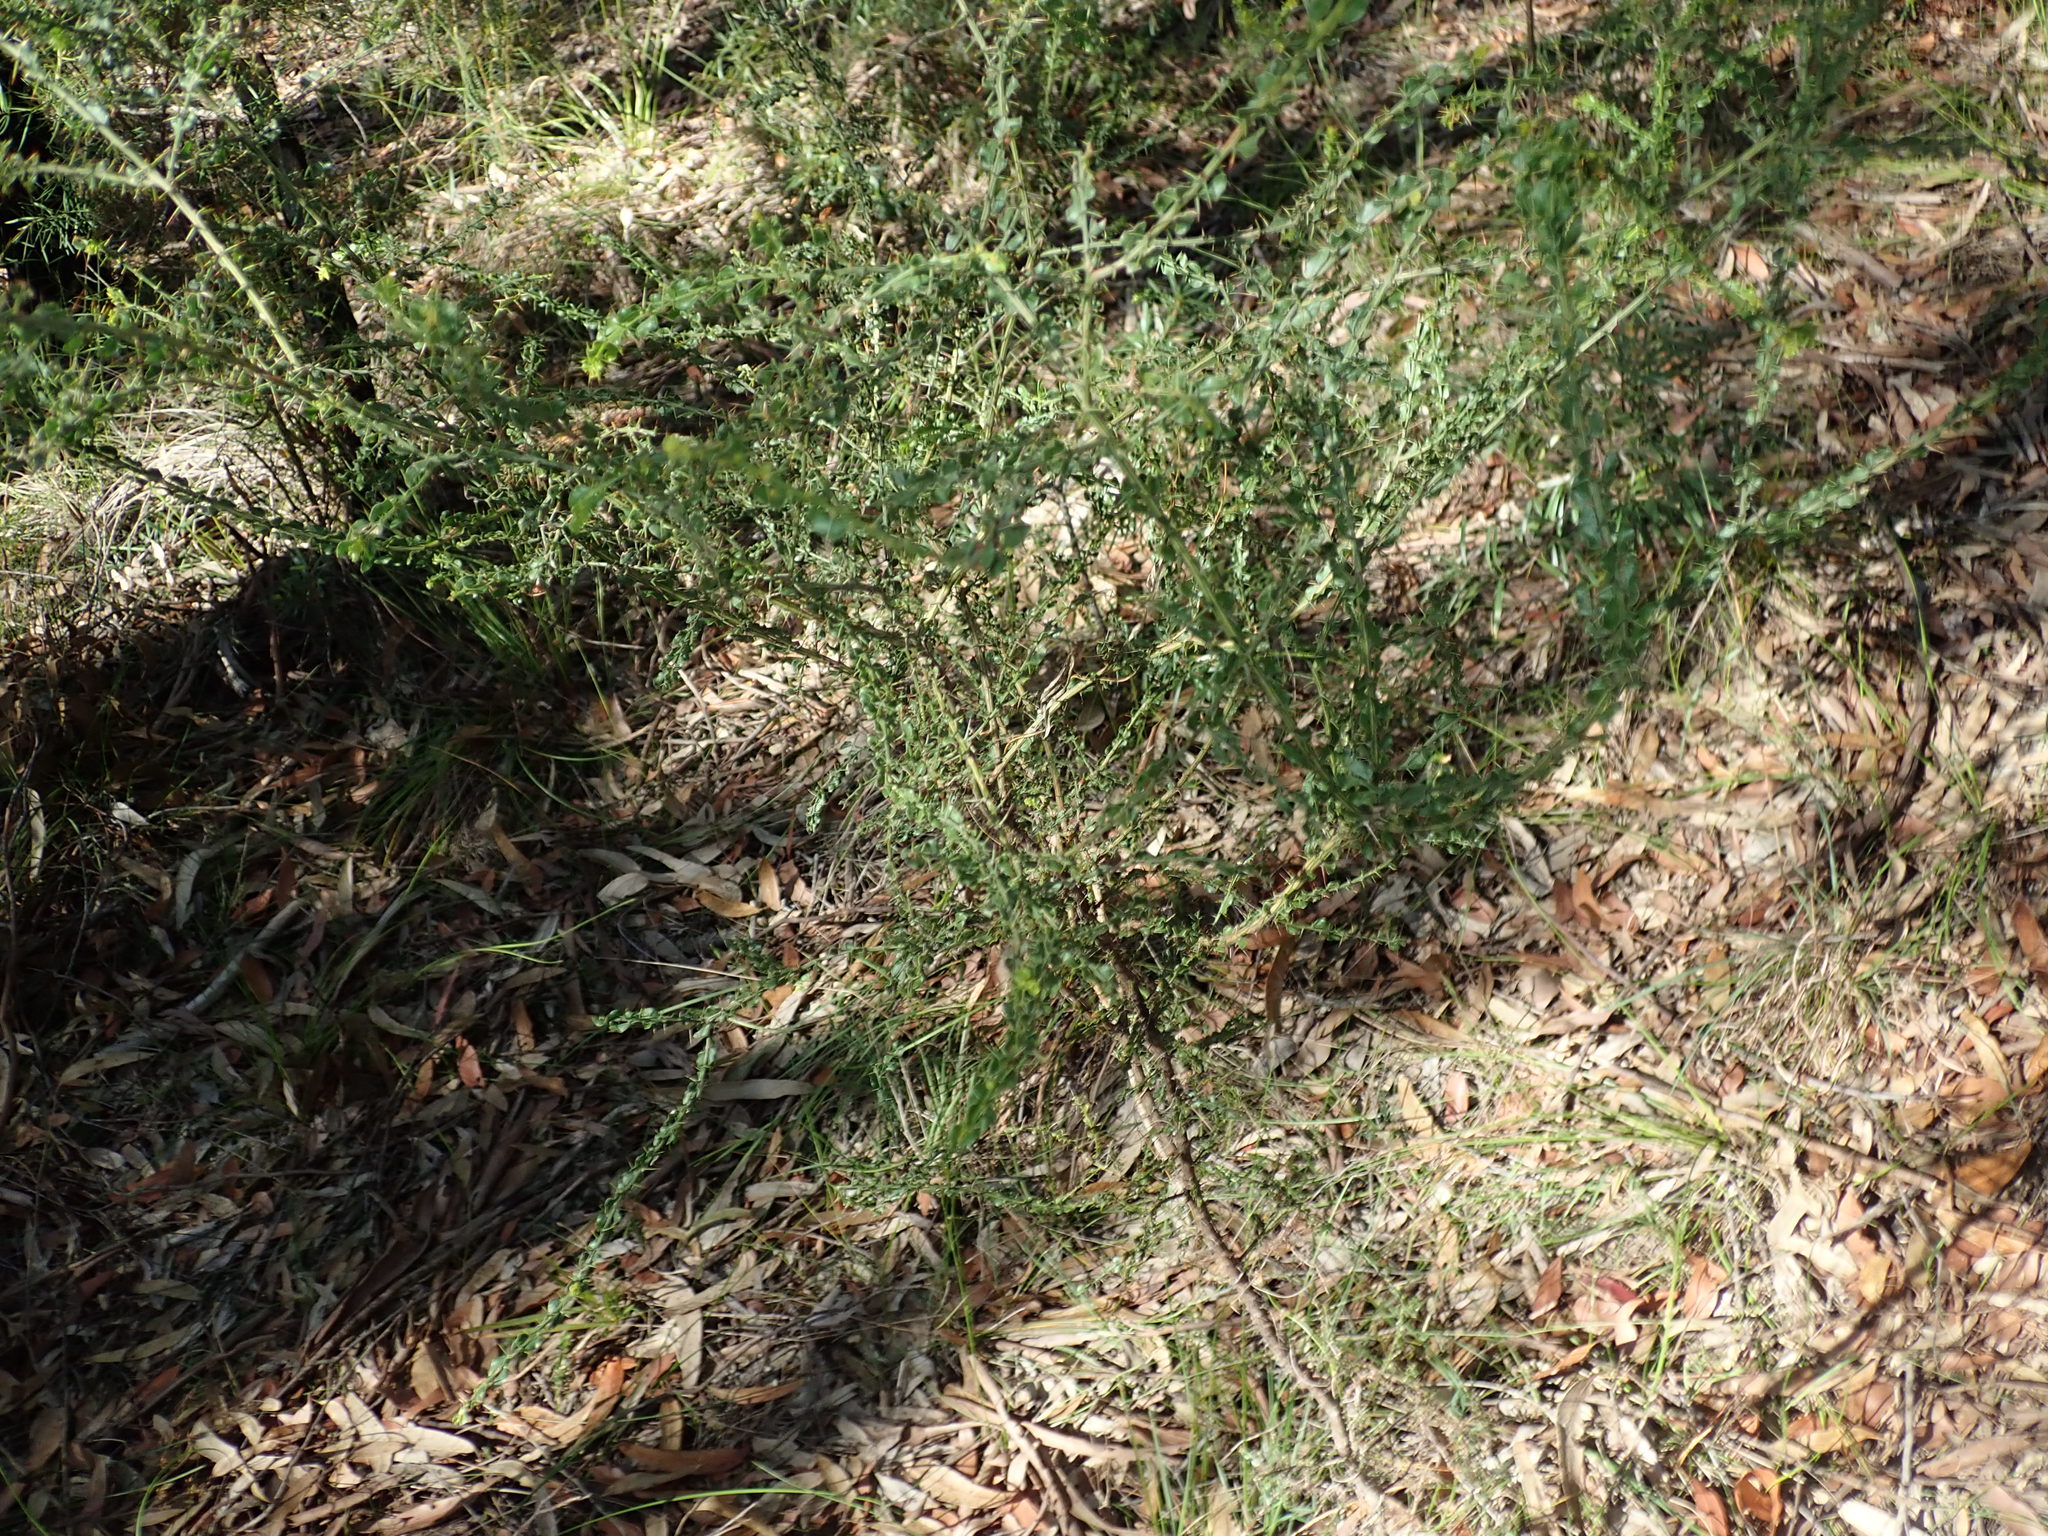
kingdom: Plantae
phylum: Tracheophyta
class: Magnoliopsida
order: Fabales
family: Fabaceae
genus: Acacia
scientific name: Acacia paradoxa
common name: Paradox acacia
